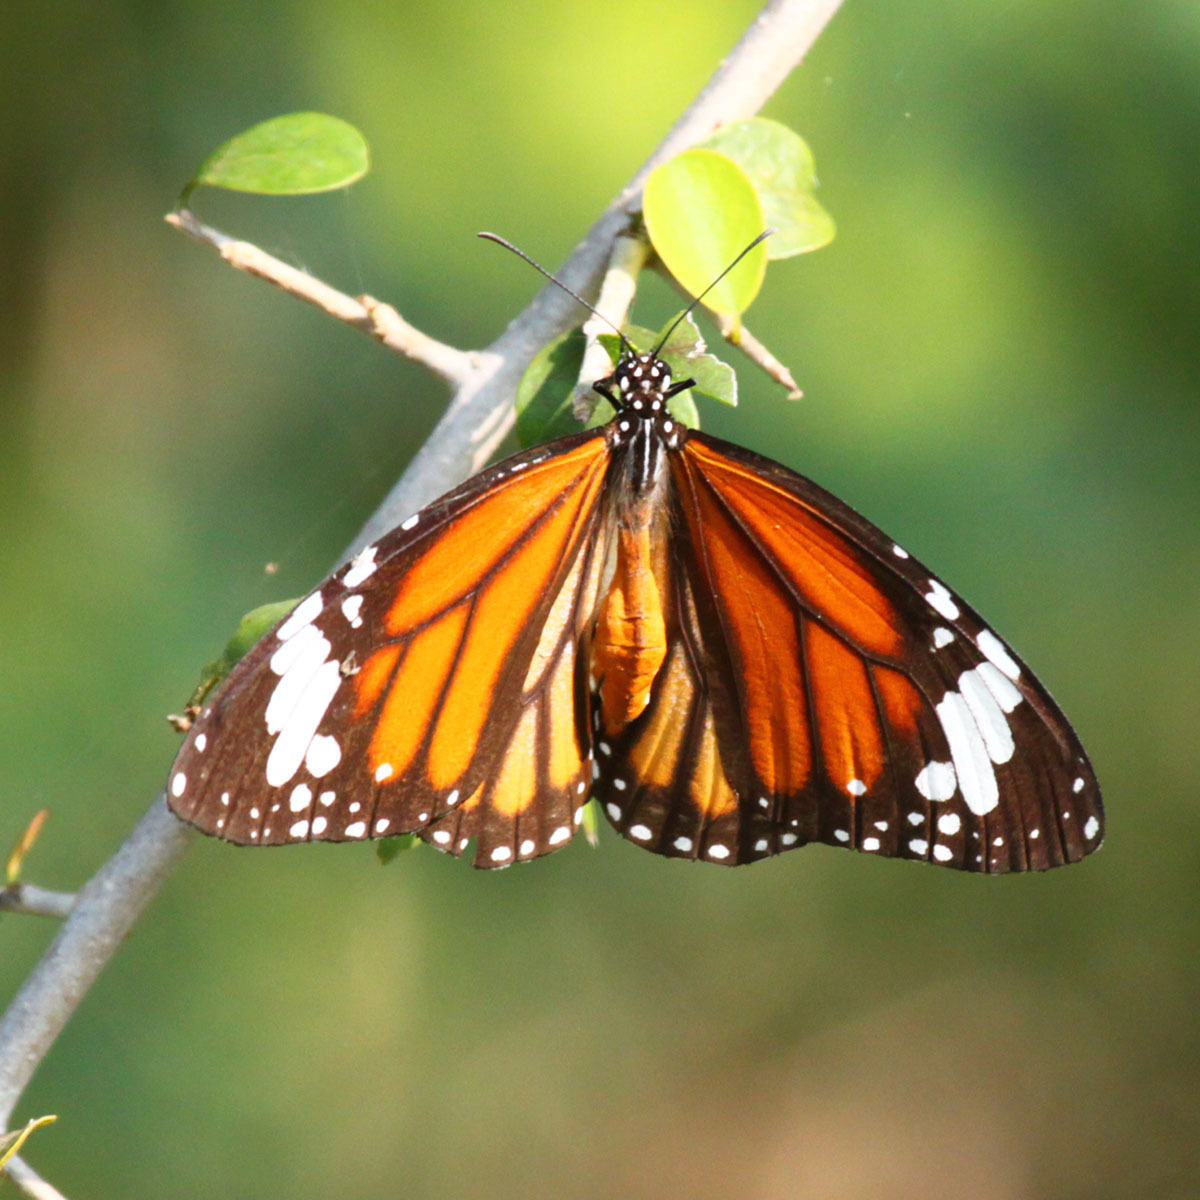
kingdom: Animalia
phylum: Arthropoda
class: Insecta
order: Lepidoptera
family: Nymphalidae
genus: Danaus
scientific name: Danaus genutia
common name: Common tiger butterfly
